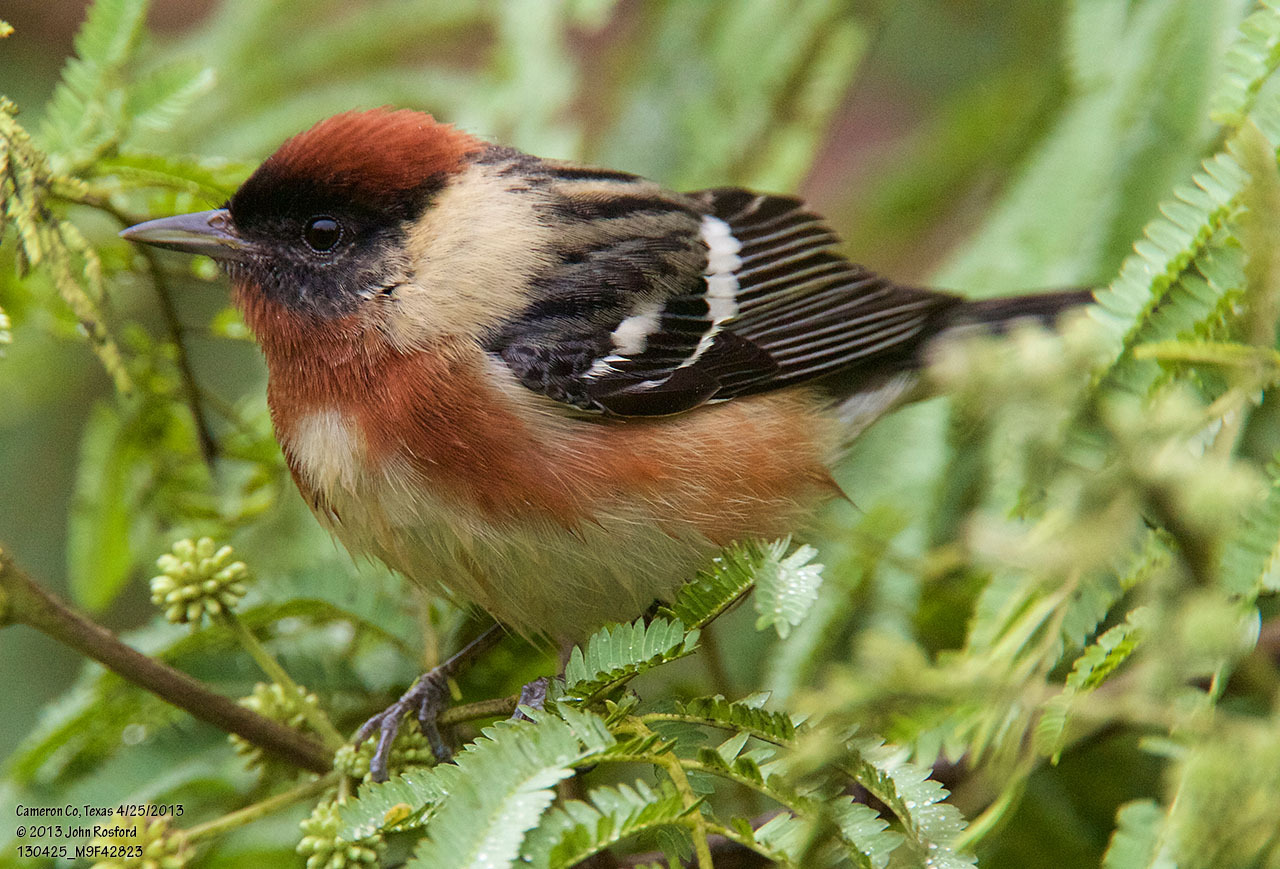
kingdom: Animalia
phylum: Chordata
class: Aves
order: Passeriformes
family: Parulidae
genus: Setophaga
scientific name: Setophaga castanea
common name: Bay-breasted warbler
